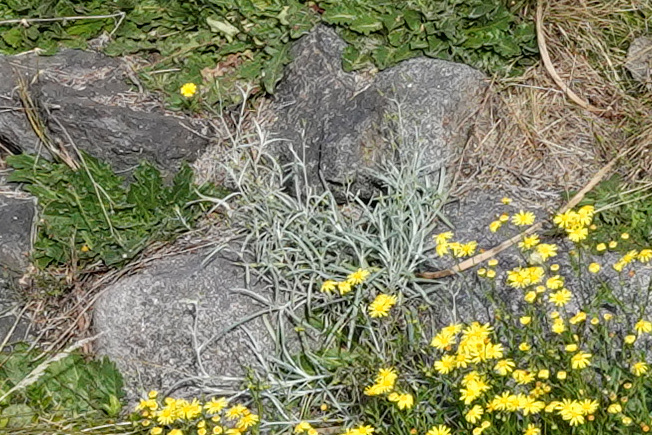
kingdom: Plantae
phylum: Tracheophyta
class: Magnoliopsida
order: Asterales
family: Asteraceae
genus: Senecio
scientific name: Senecio quadridentatus
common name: Cotton fireweed
